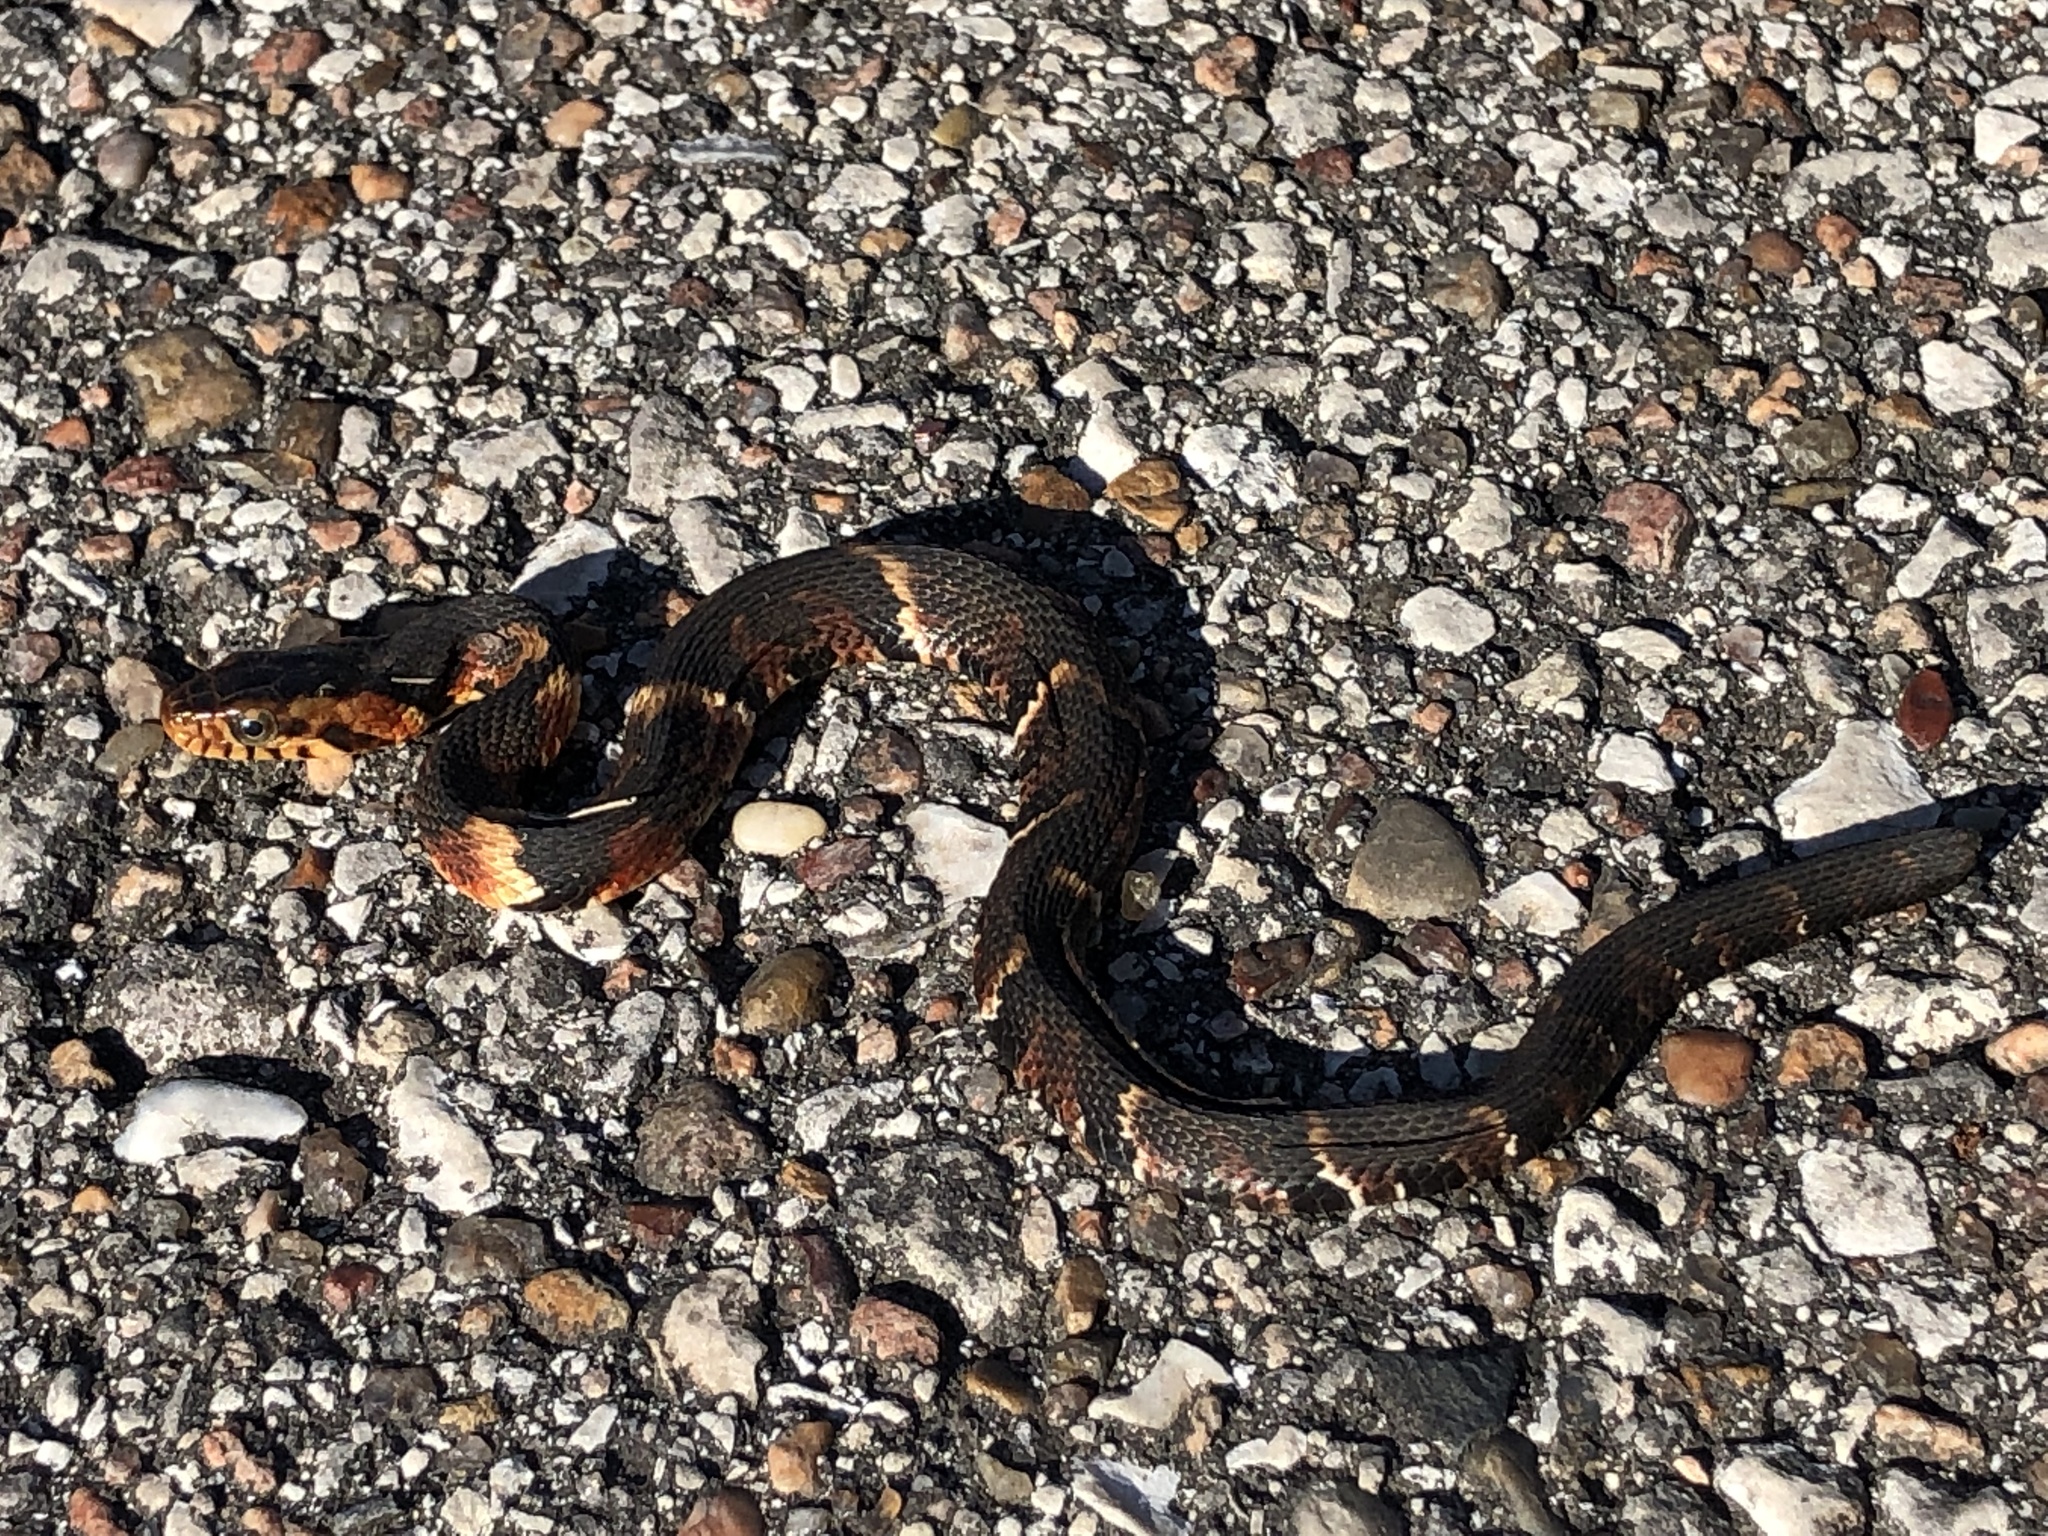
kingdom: Animalia
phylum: Chordata
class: Squamata
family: Colubridae
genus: Nerodia
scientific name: Nerodia fasciata
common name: Southern water snake
